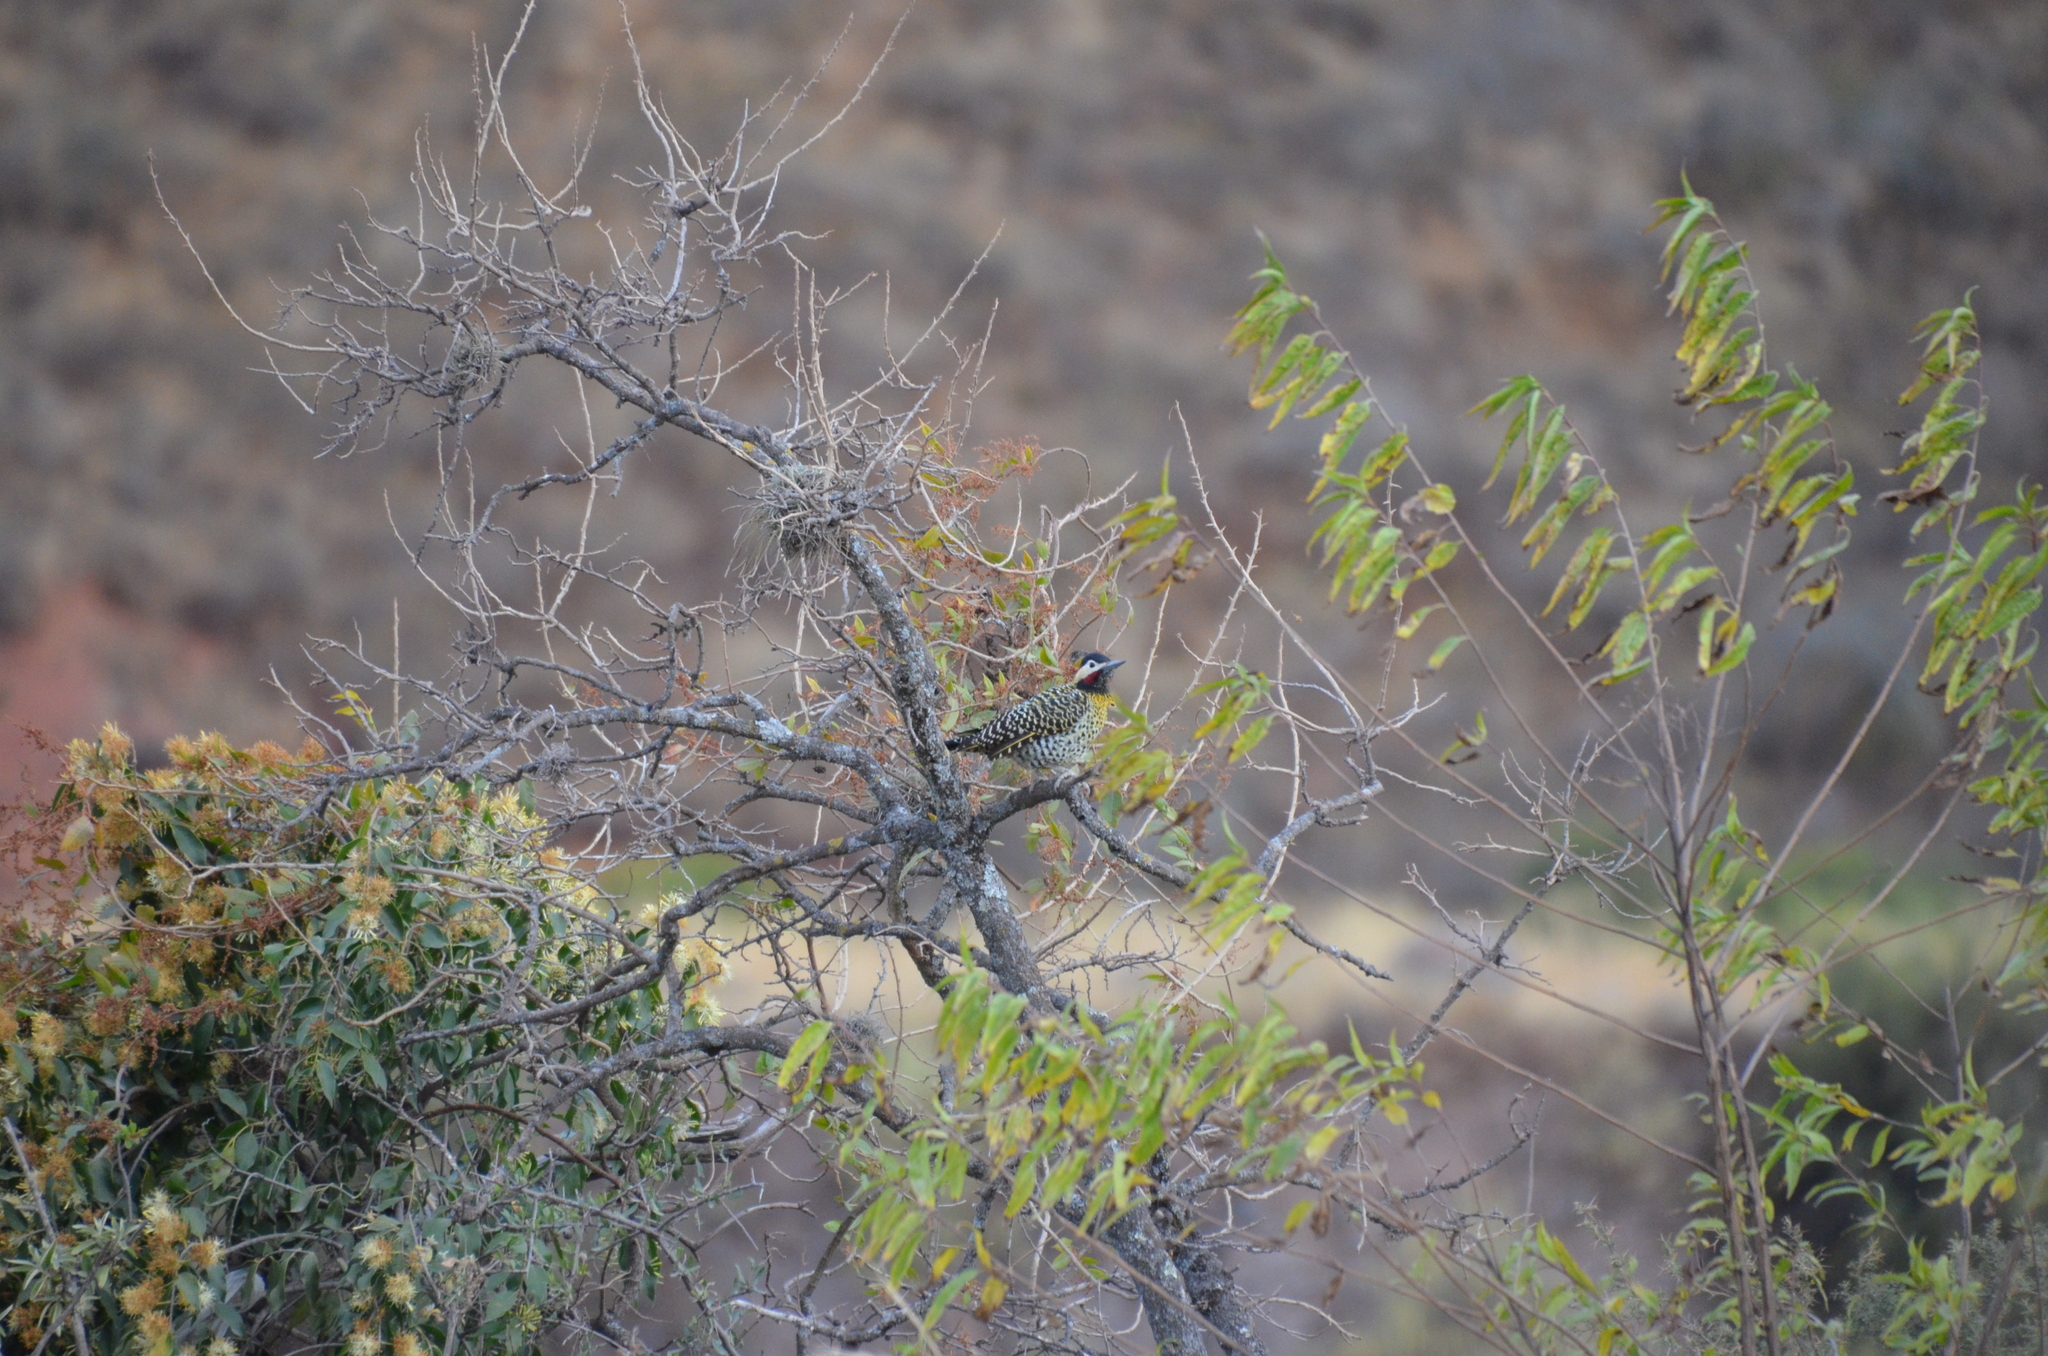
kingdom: Animalia
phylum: Chordata
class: Aves
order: Piciformes
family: Picidae
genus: Colaptes
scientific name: Colaptes melanochloros
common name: Green-barred woodpecker
